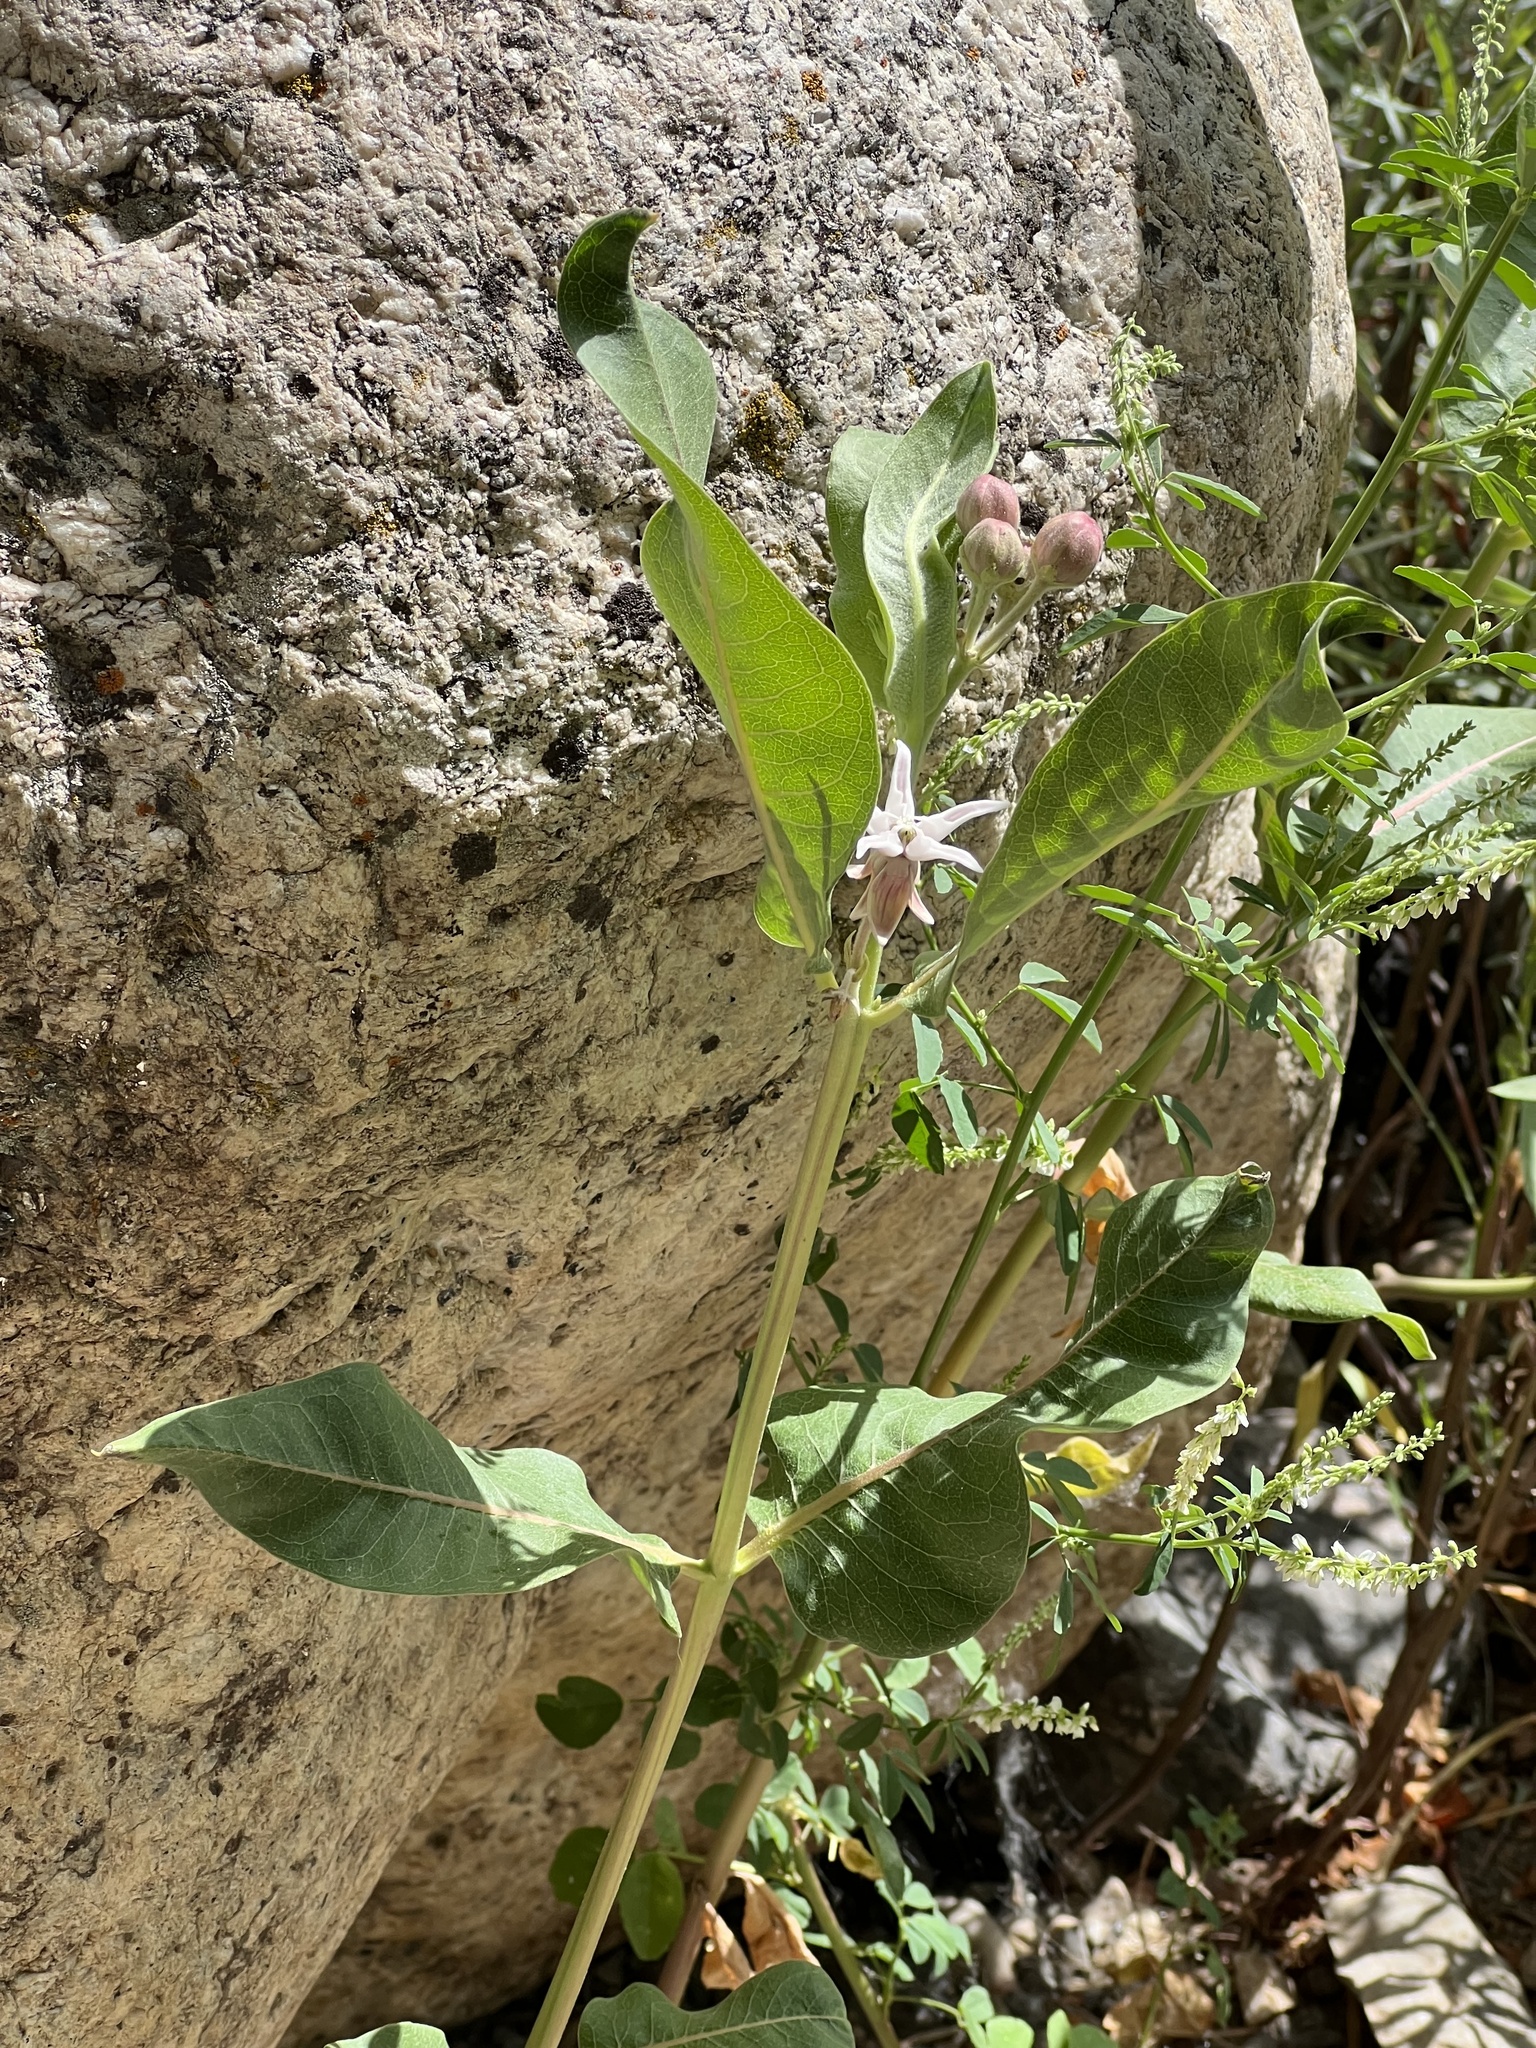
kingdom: Plantae
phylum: Tracheophyta
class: Magnoliopsida
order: Gentianales
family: Apocynaceae
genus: Asclepias
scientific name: Asclepias speciosa
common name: Showy milkweed
